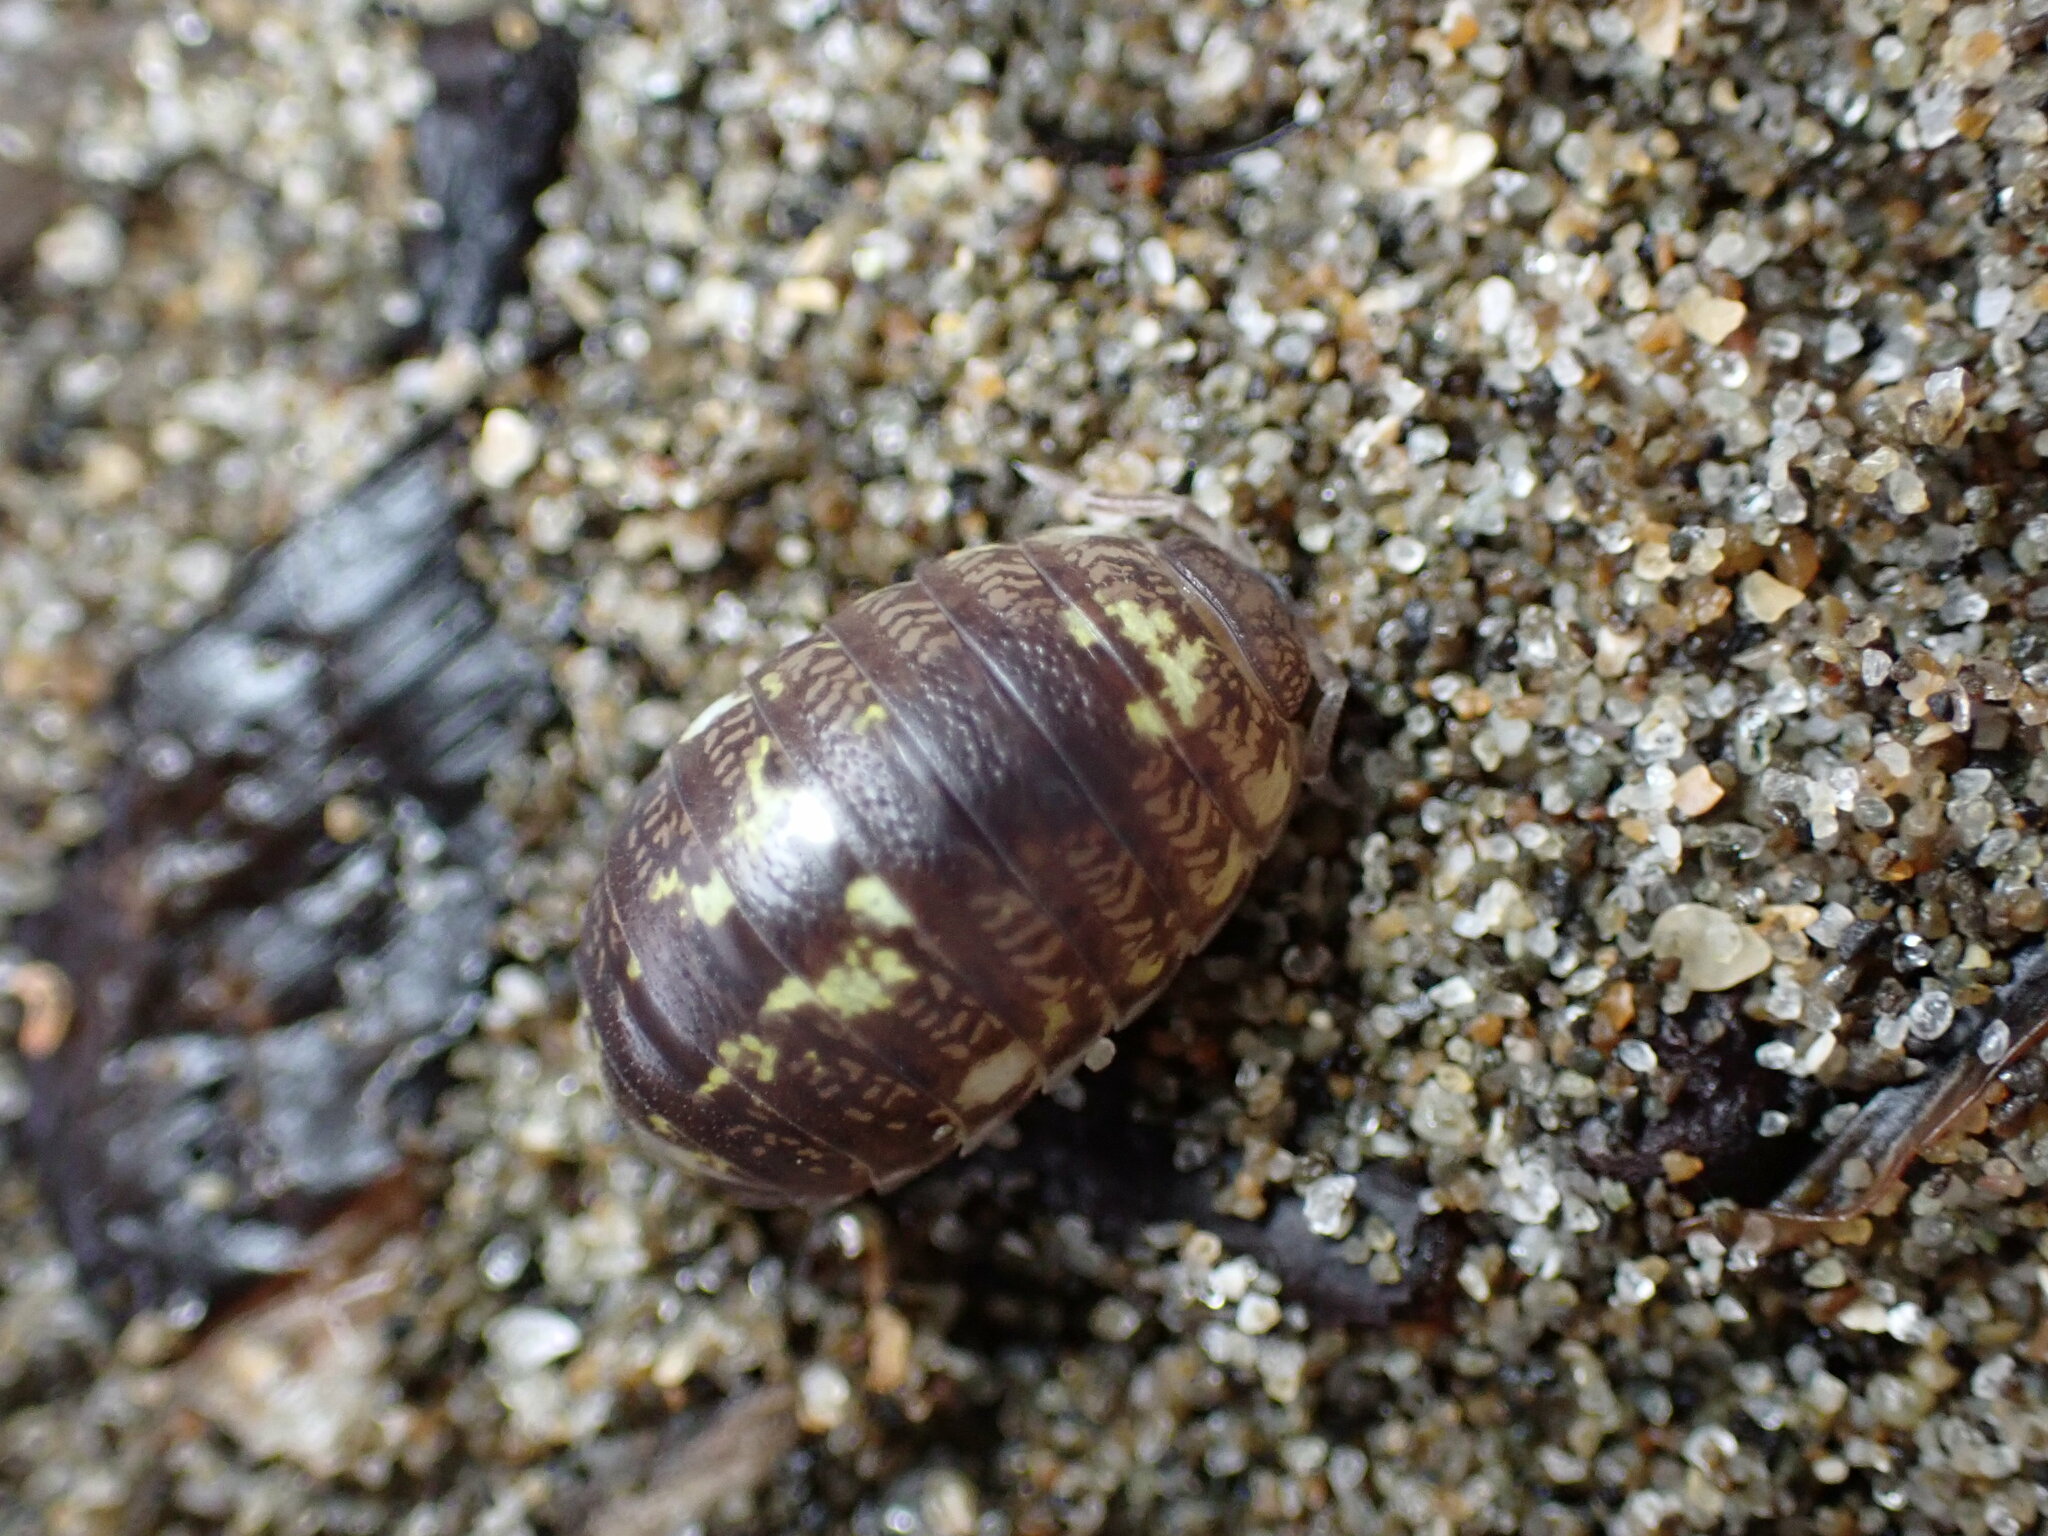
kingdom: Animalia
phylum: Arthropoda
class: Malacostraca
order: Isopoda
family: Alloniscidae
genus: Alloniscus
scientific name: Alloniscus perconvexus
